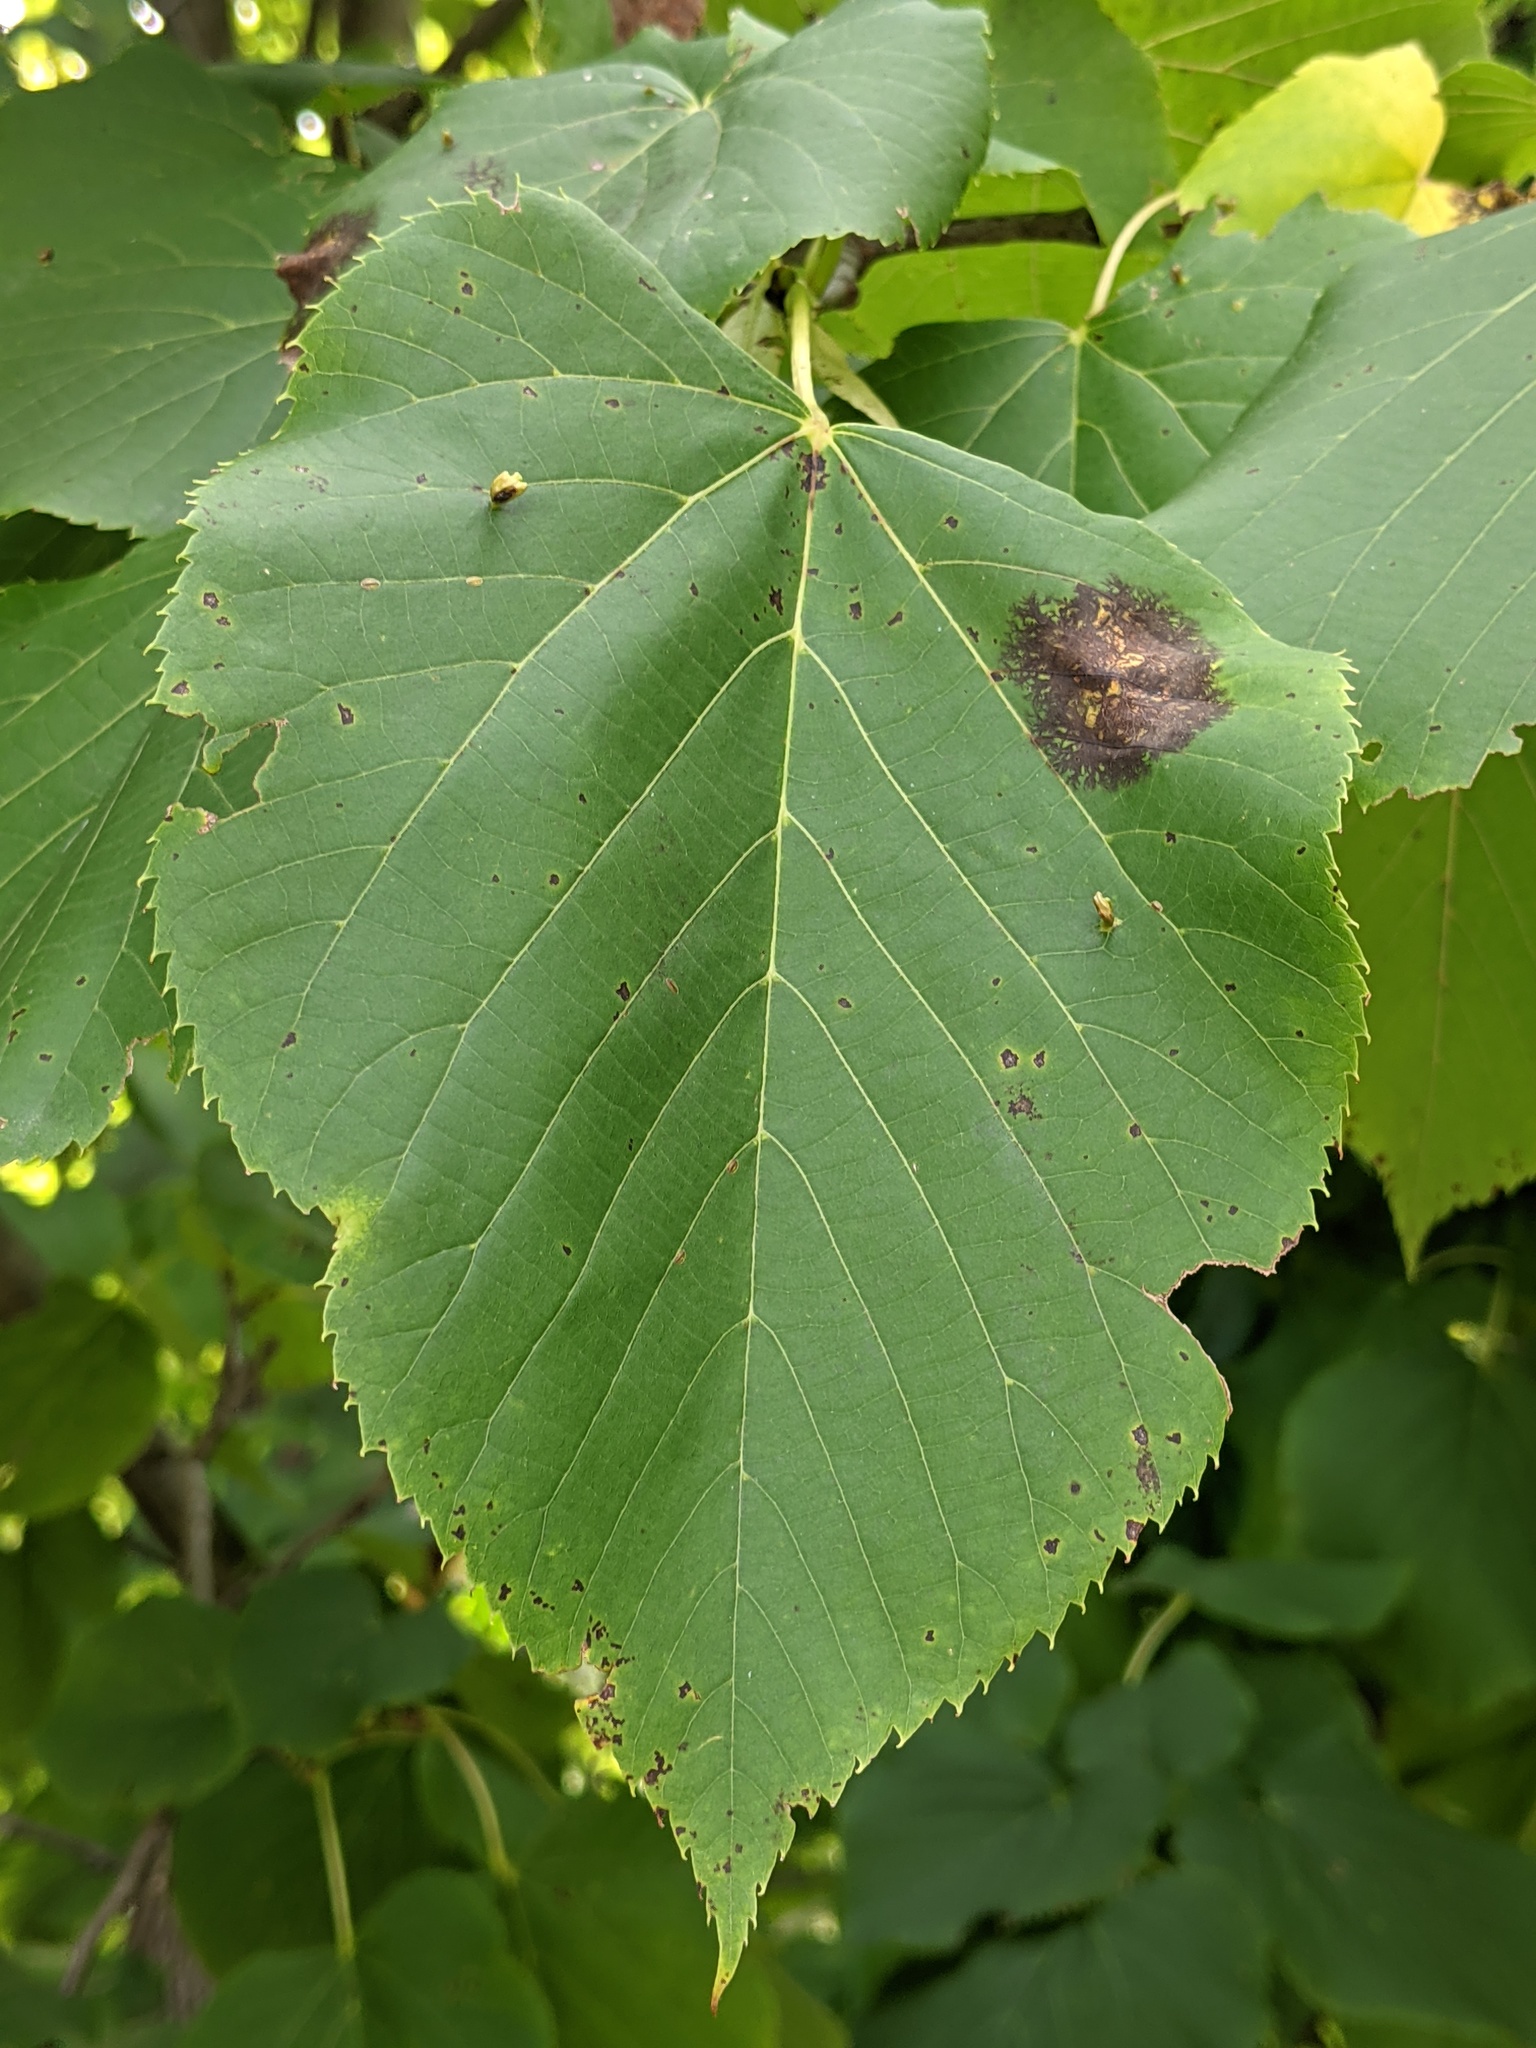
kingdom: Animalia
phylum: Arthropoda
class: Arachnida
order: Trombidiformes
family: Eriophyidae
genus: Eriophyes
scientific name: Eriophyes tiliae
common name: Red nail gall mite
